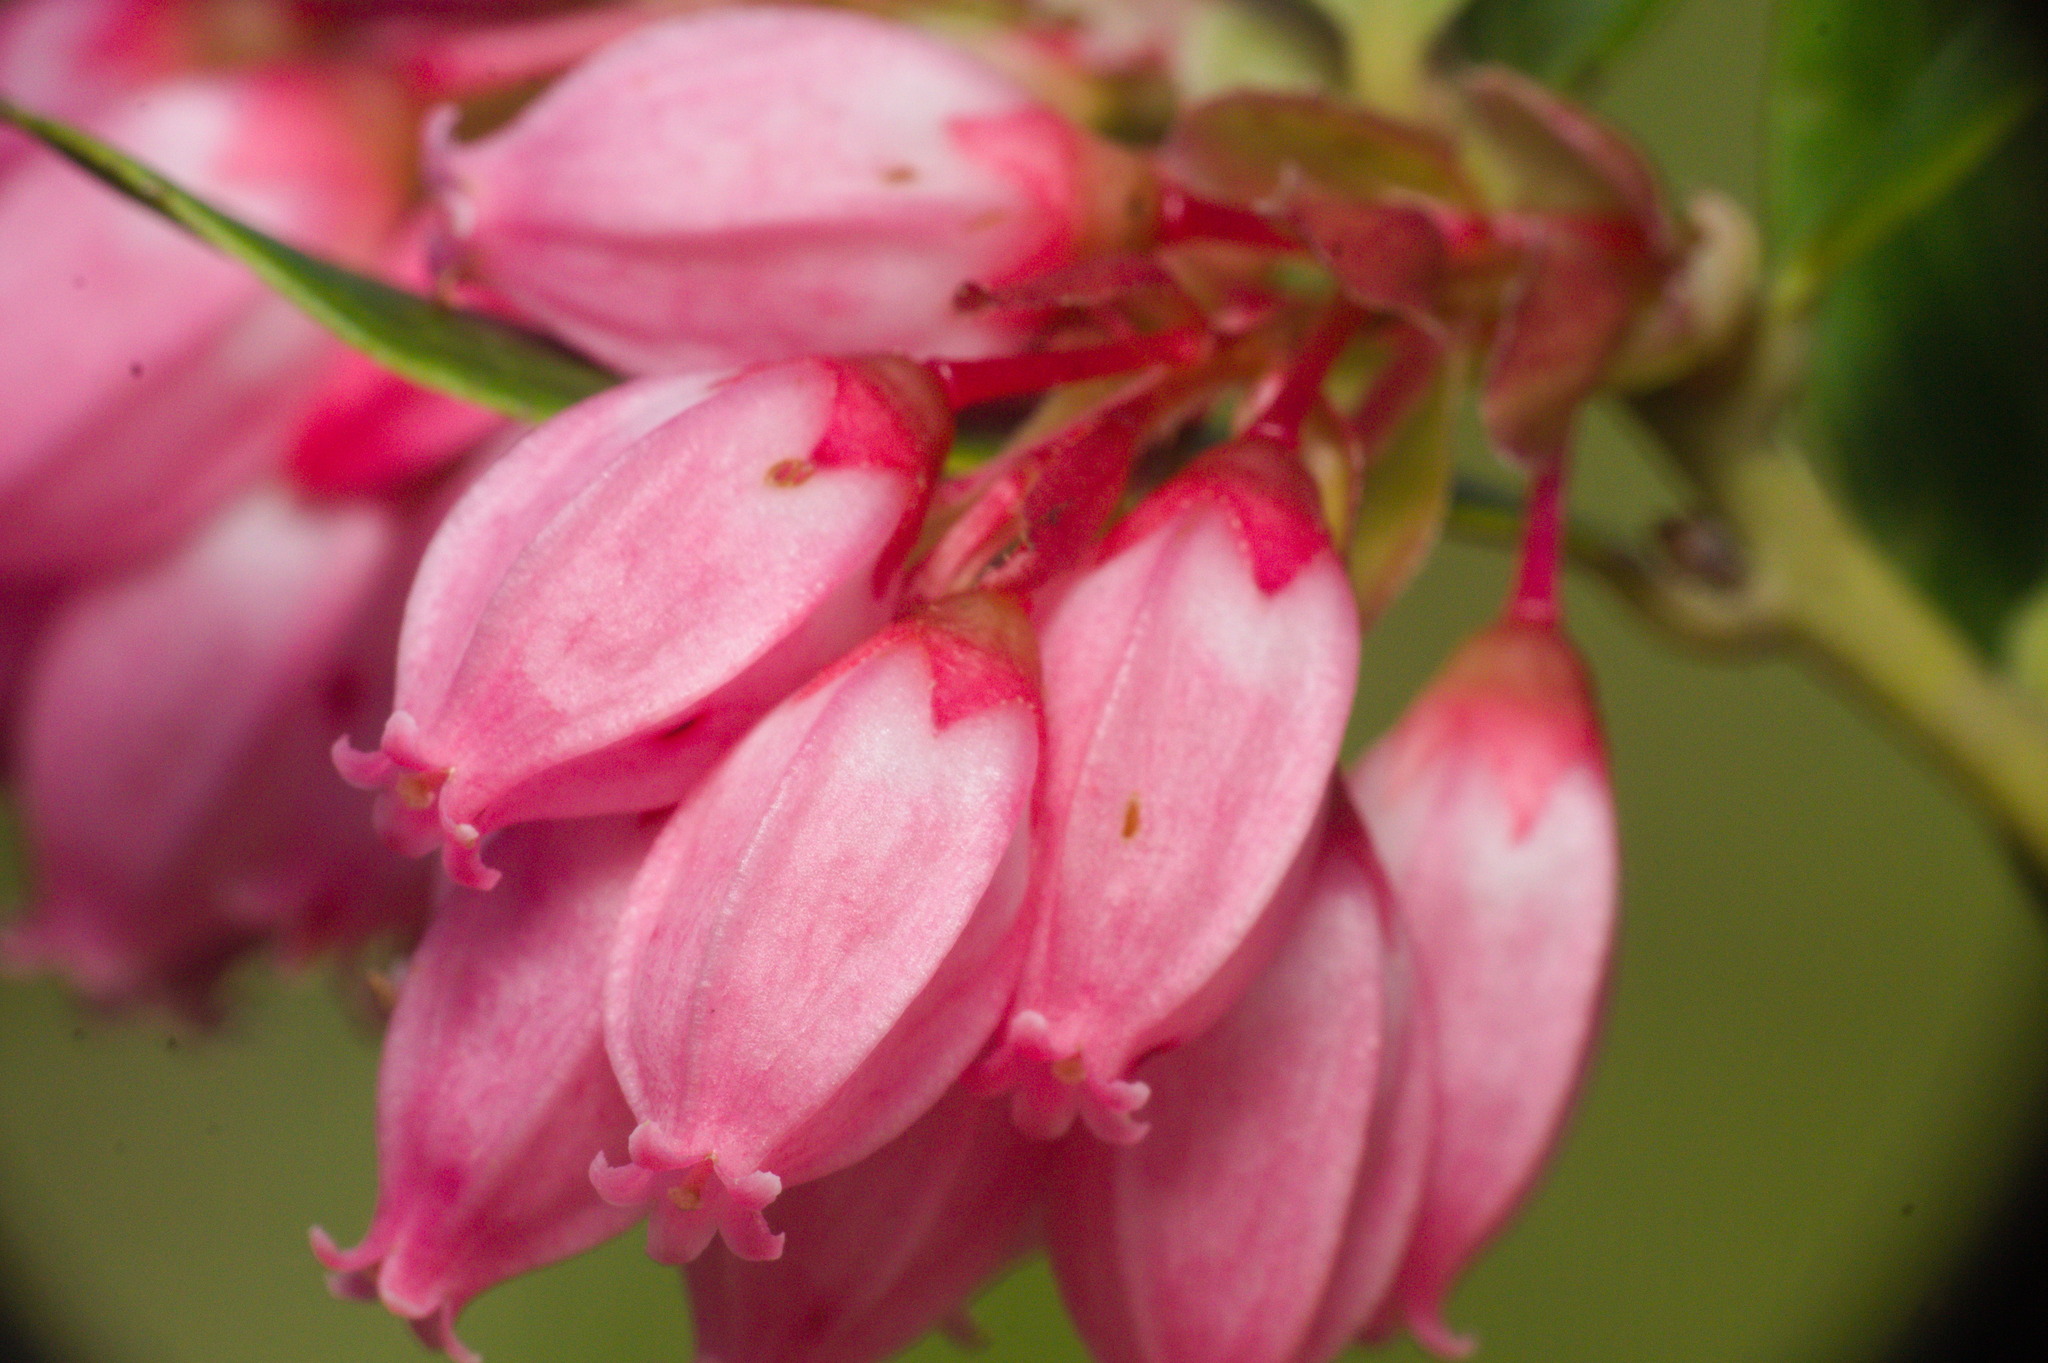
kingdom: Plantae
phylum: Tracheophyta
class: Magnoliopsida
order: Ericales
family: Ericaceae
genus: Gaylussacia
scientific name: Gaylussacia brasiliensis
